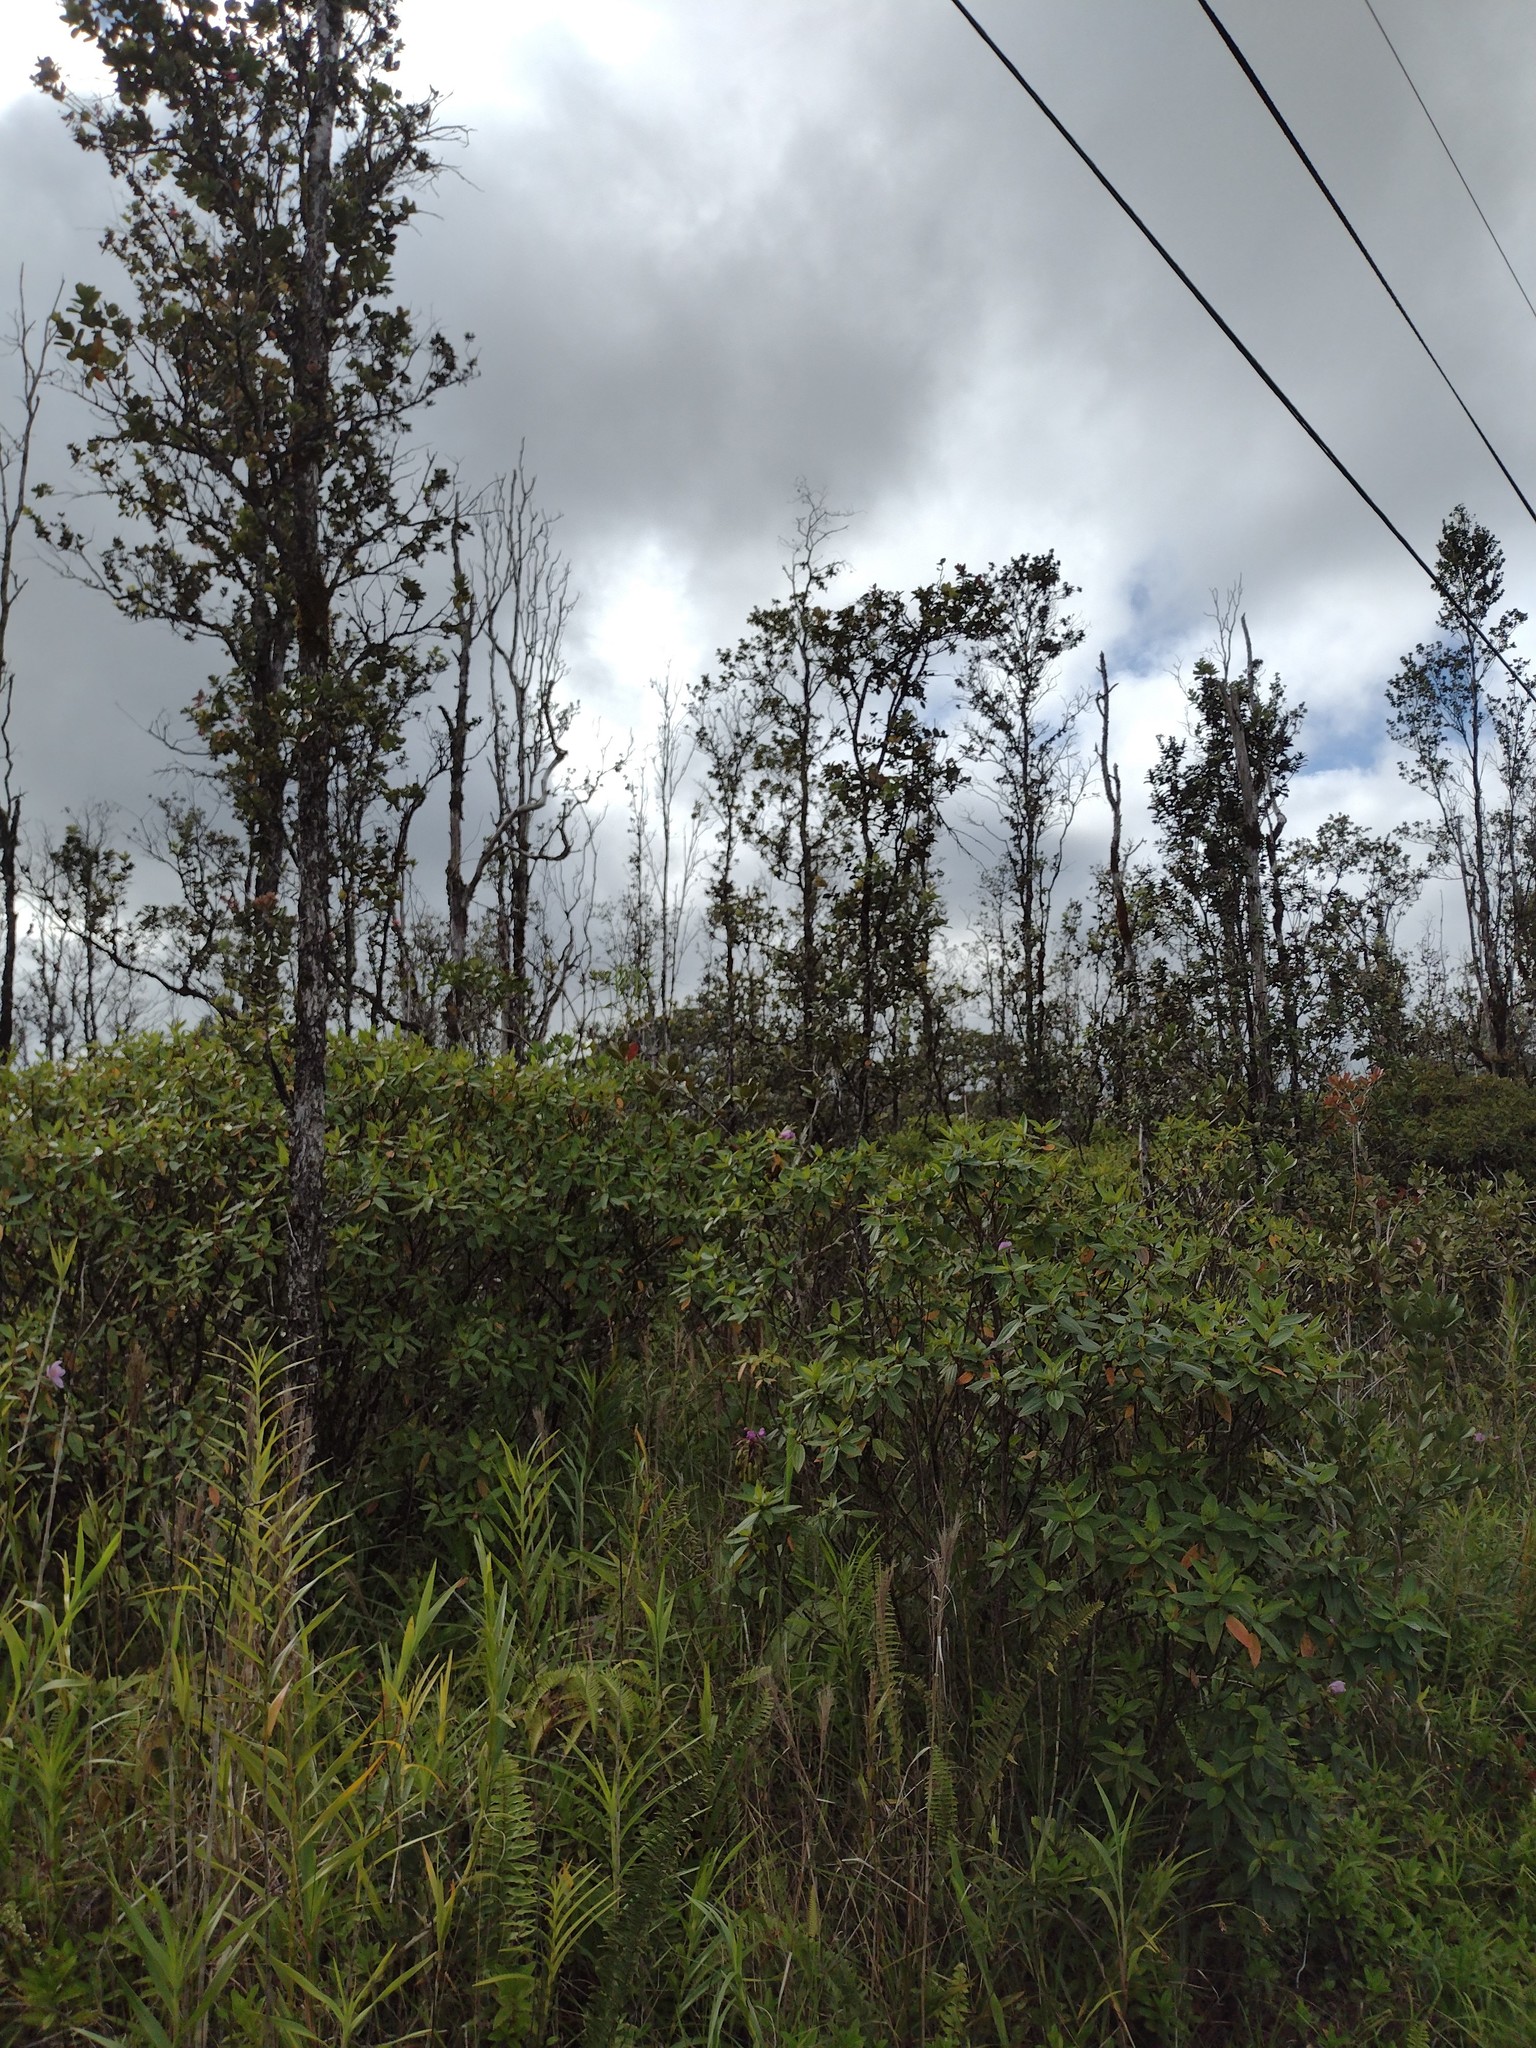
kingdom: Plantae
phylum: Tracheophyta
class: Magnoliopsida
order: Myrtales
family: Myrtaceae
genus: Metrosideros
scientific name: Metrosideros polymorpha
